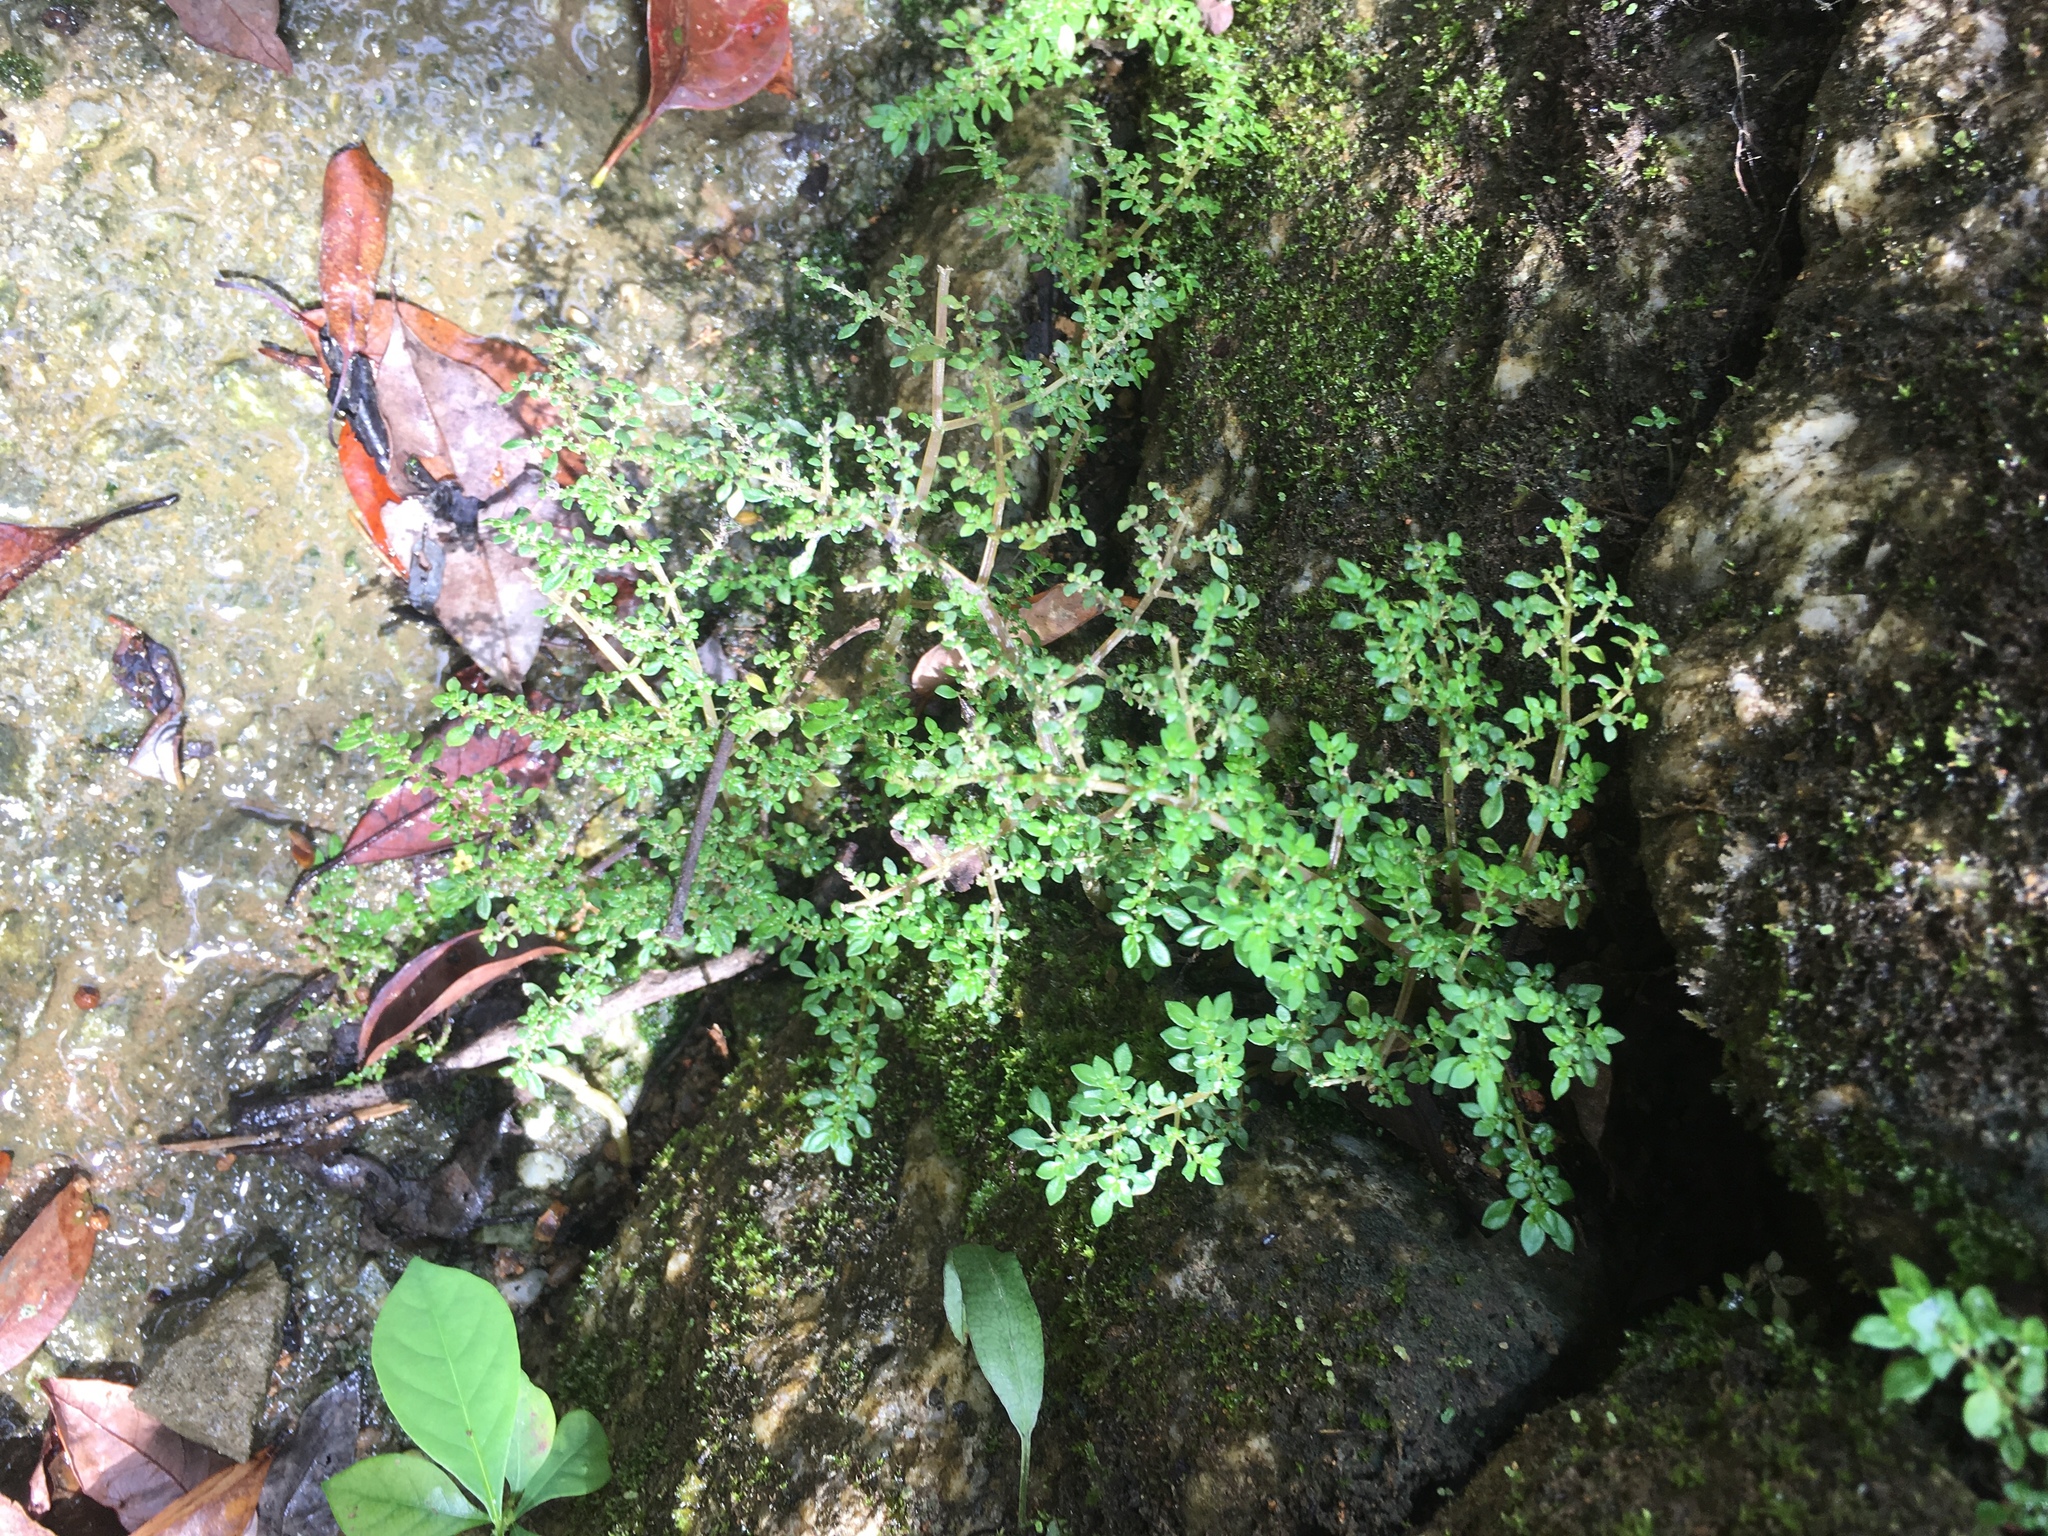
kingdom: Plantae
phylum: Tracheophyta
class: Magnoliopsida
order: Rosales
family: Urticaceae
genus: Pilea
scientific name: Pilea microphylla
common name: Artillery-plant
